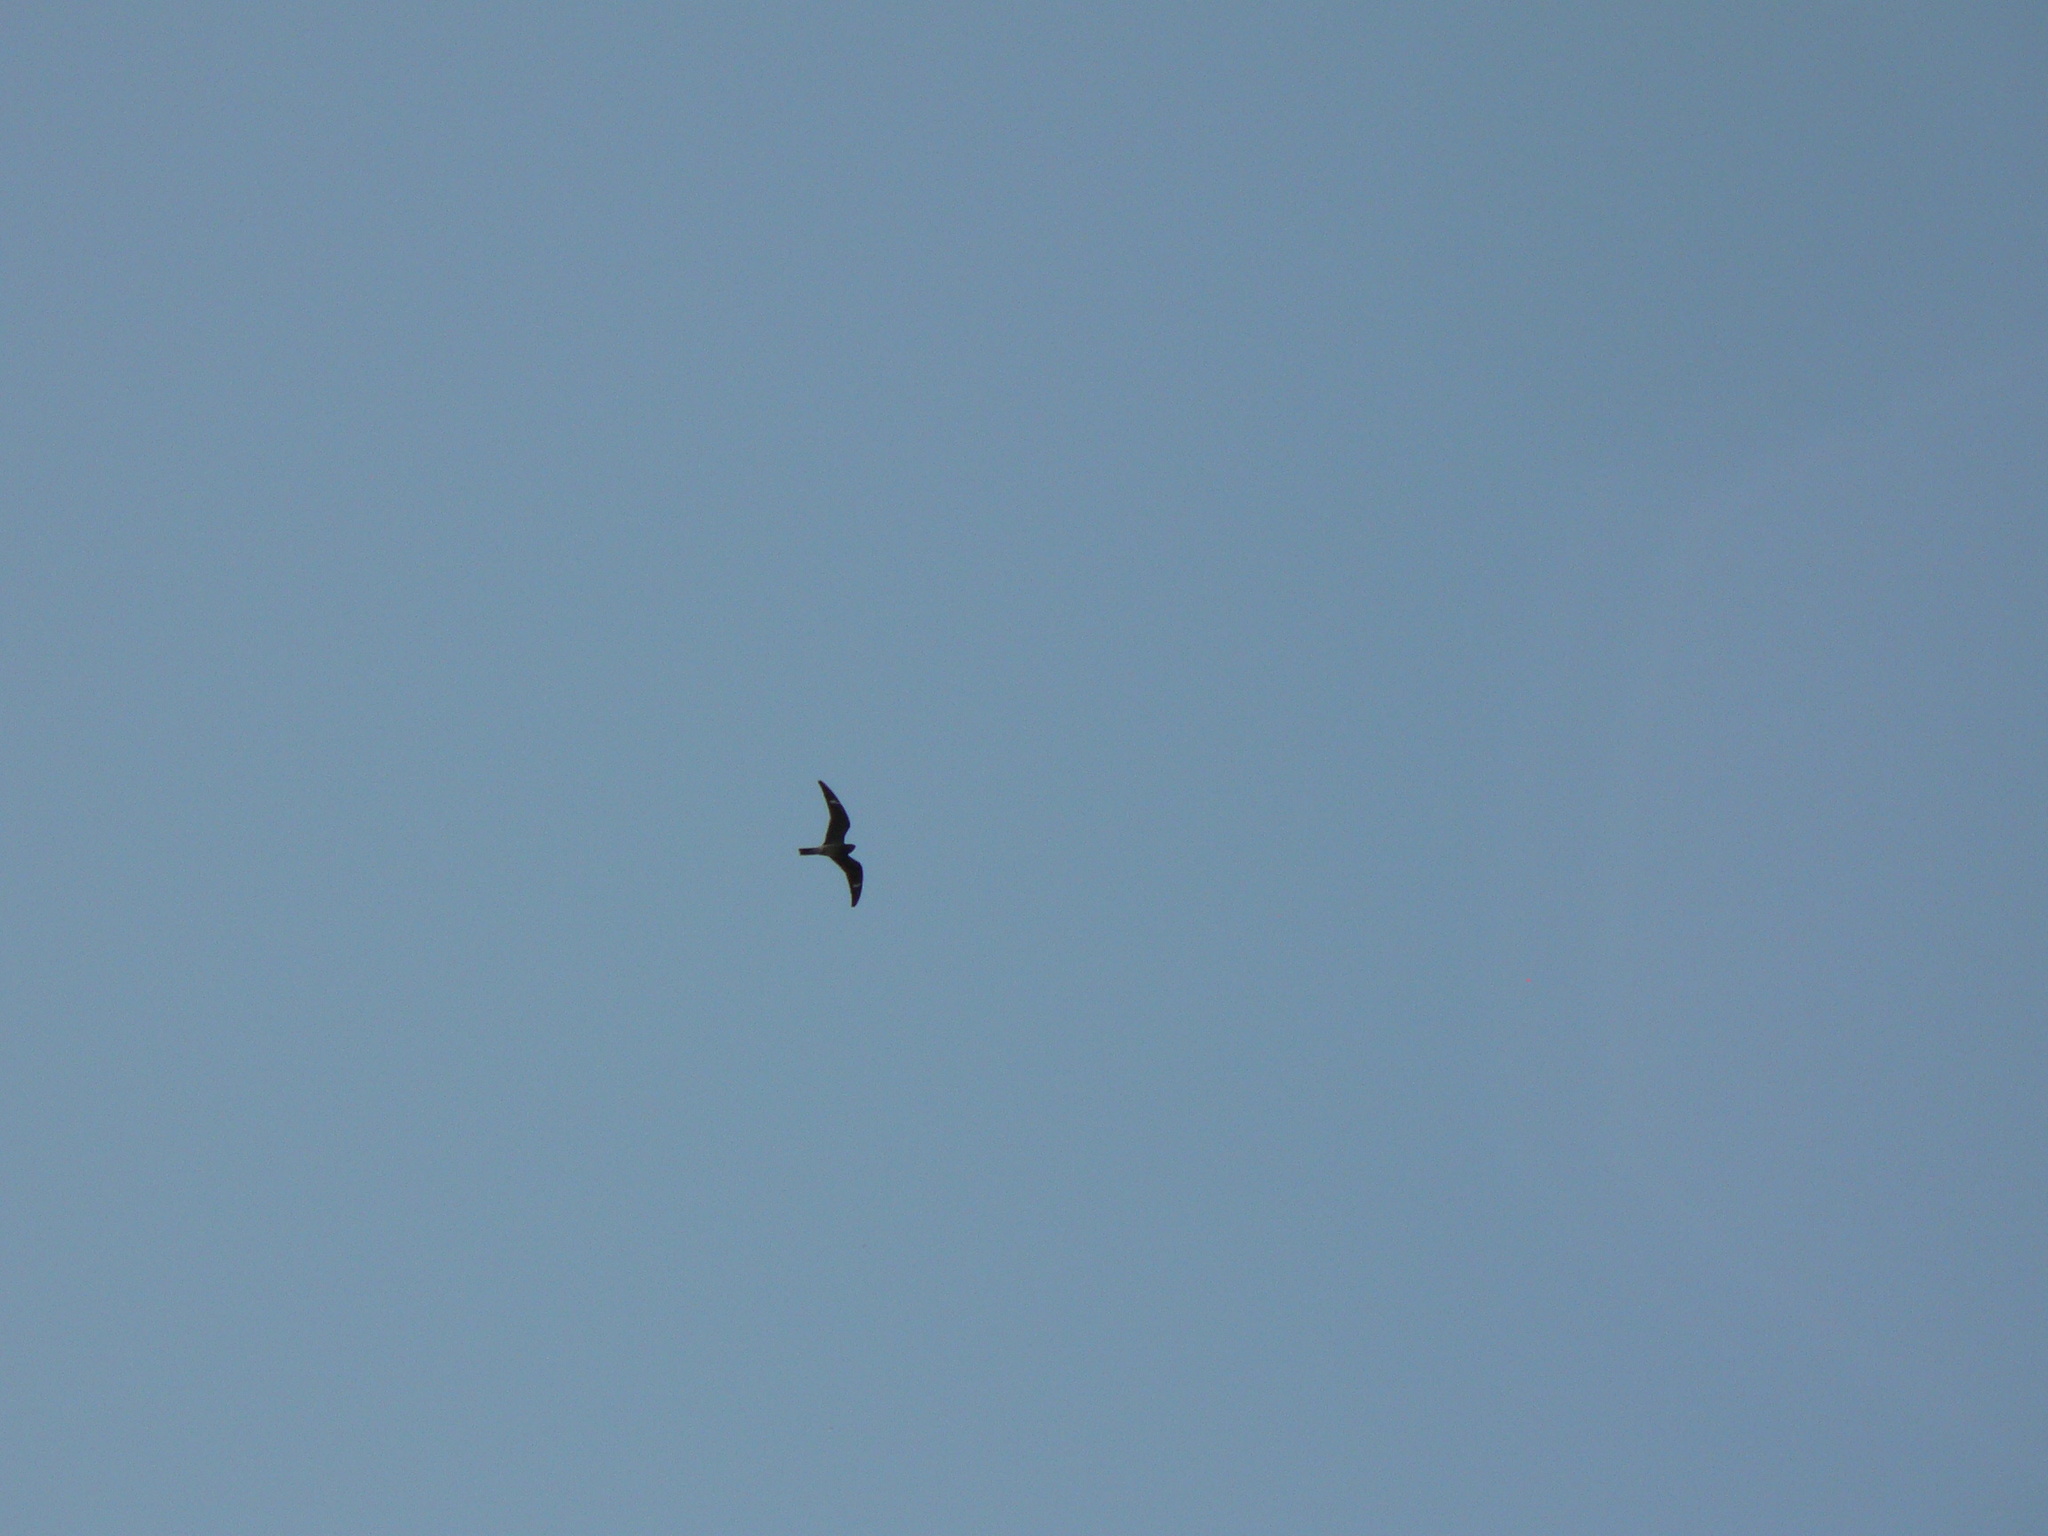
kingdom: Animalia
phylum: Chordata
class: Aves
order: Caprimulgiformes
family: Caprimulgidae
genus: Chordeiles
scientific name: Chordeiles minor
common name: Common nighthawk
